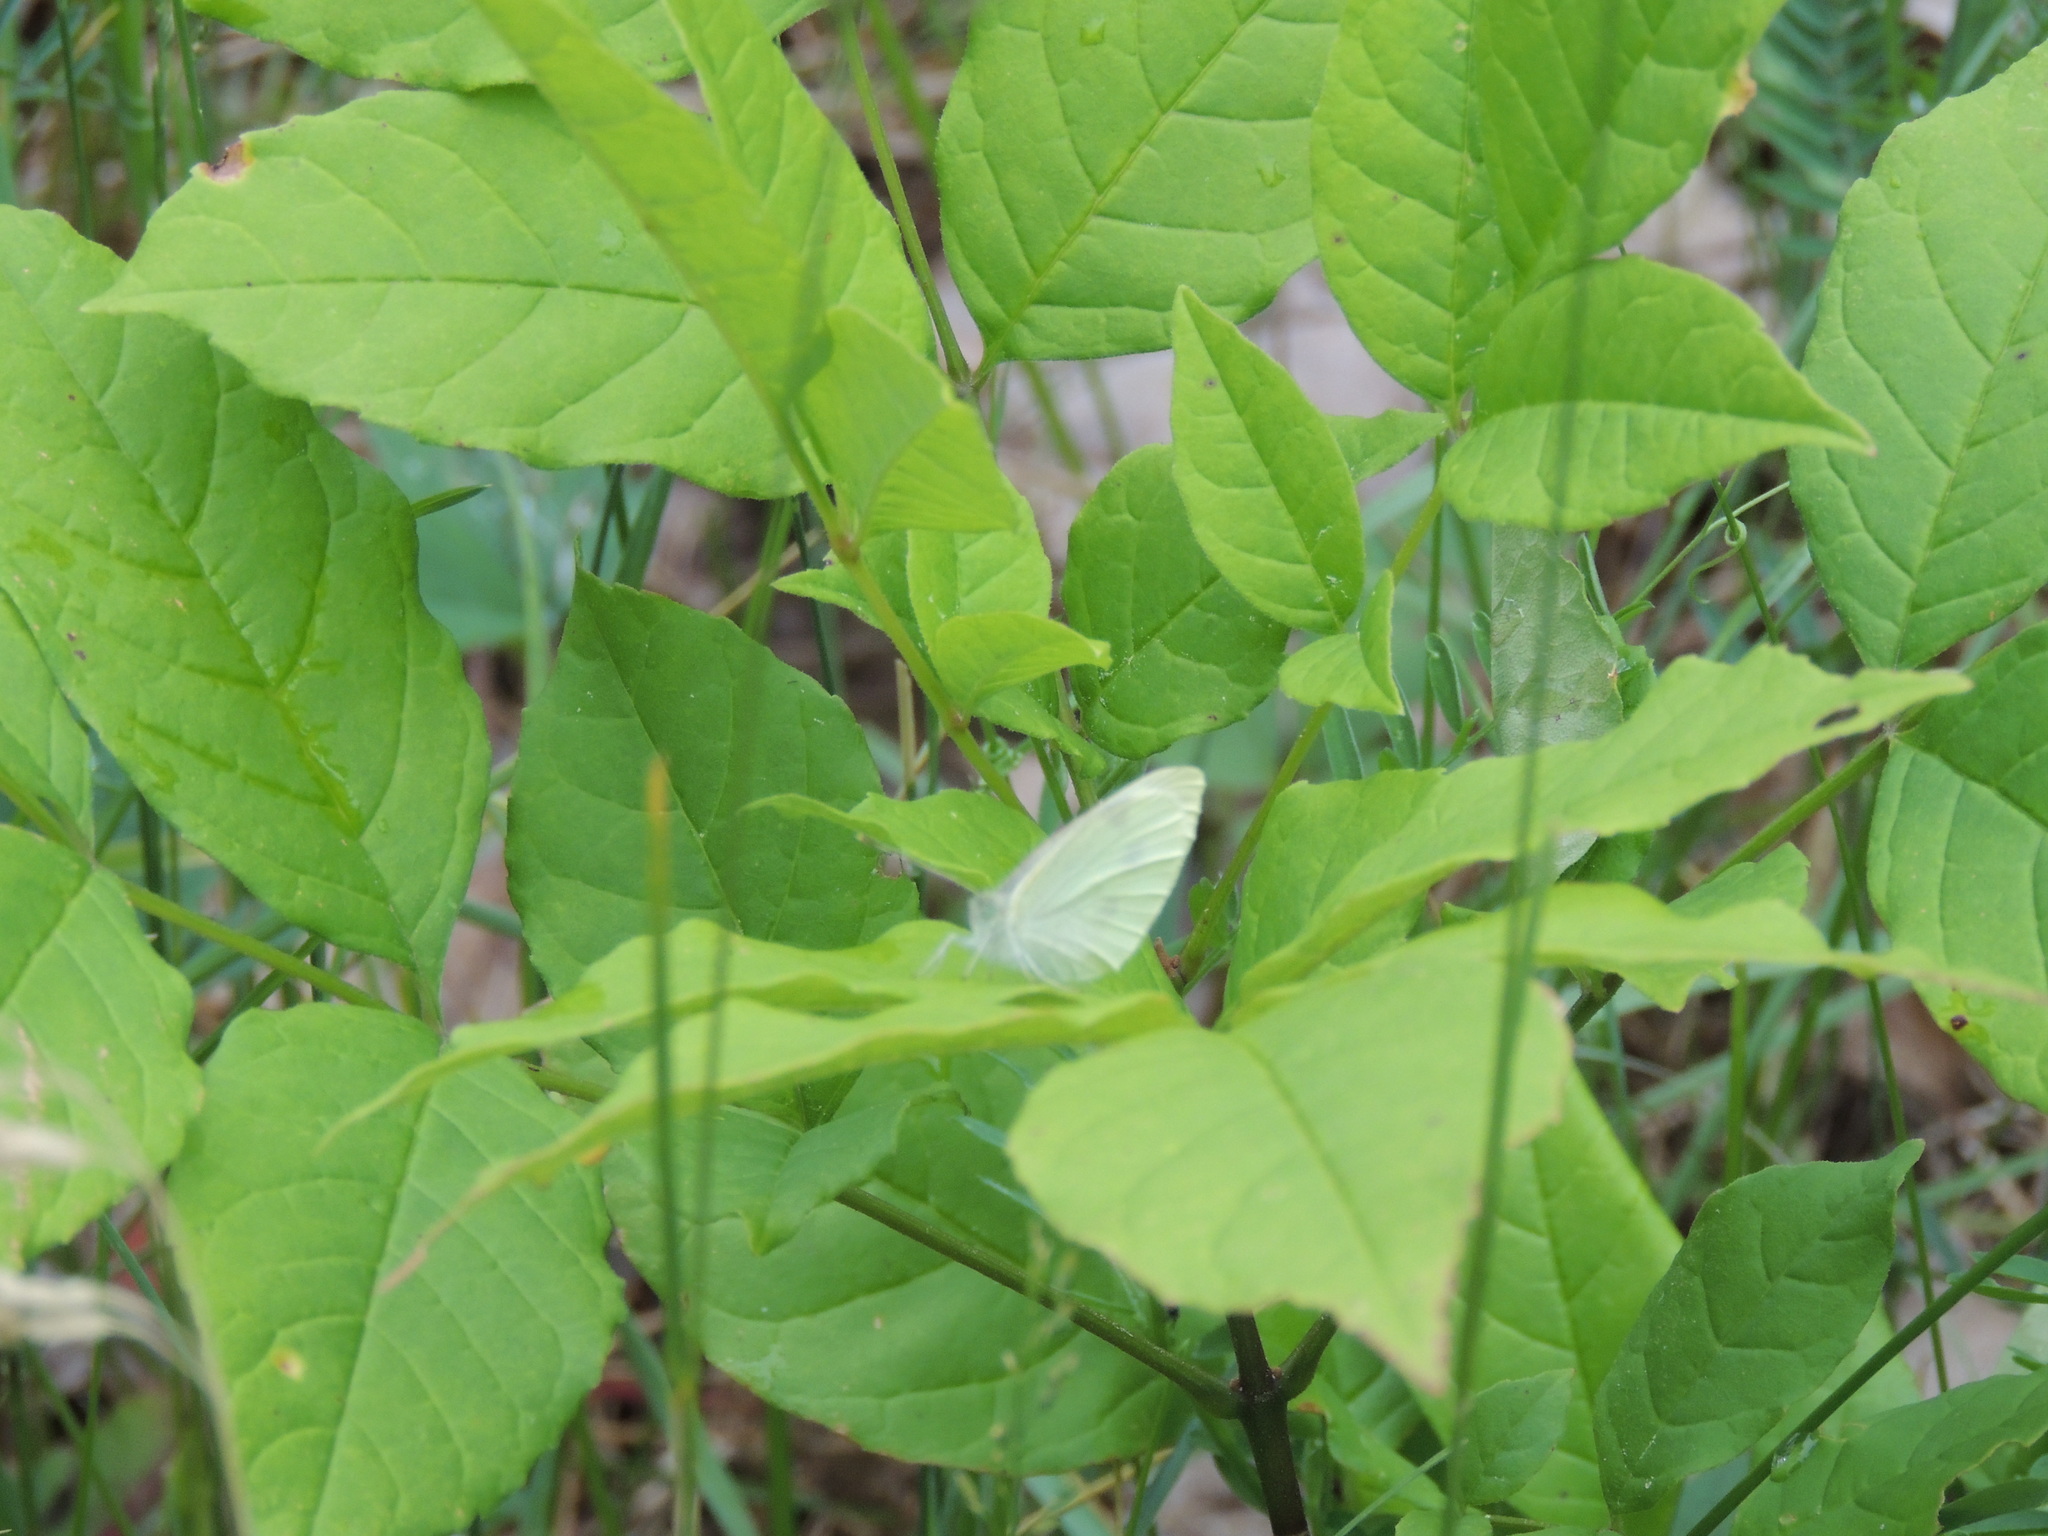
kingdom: Animalia
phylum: Arthropoda
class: Insecta
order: Lepidoptera
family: Pieridae
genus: Pieris
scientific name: Pieris rapae
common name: Small white
